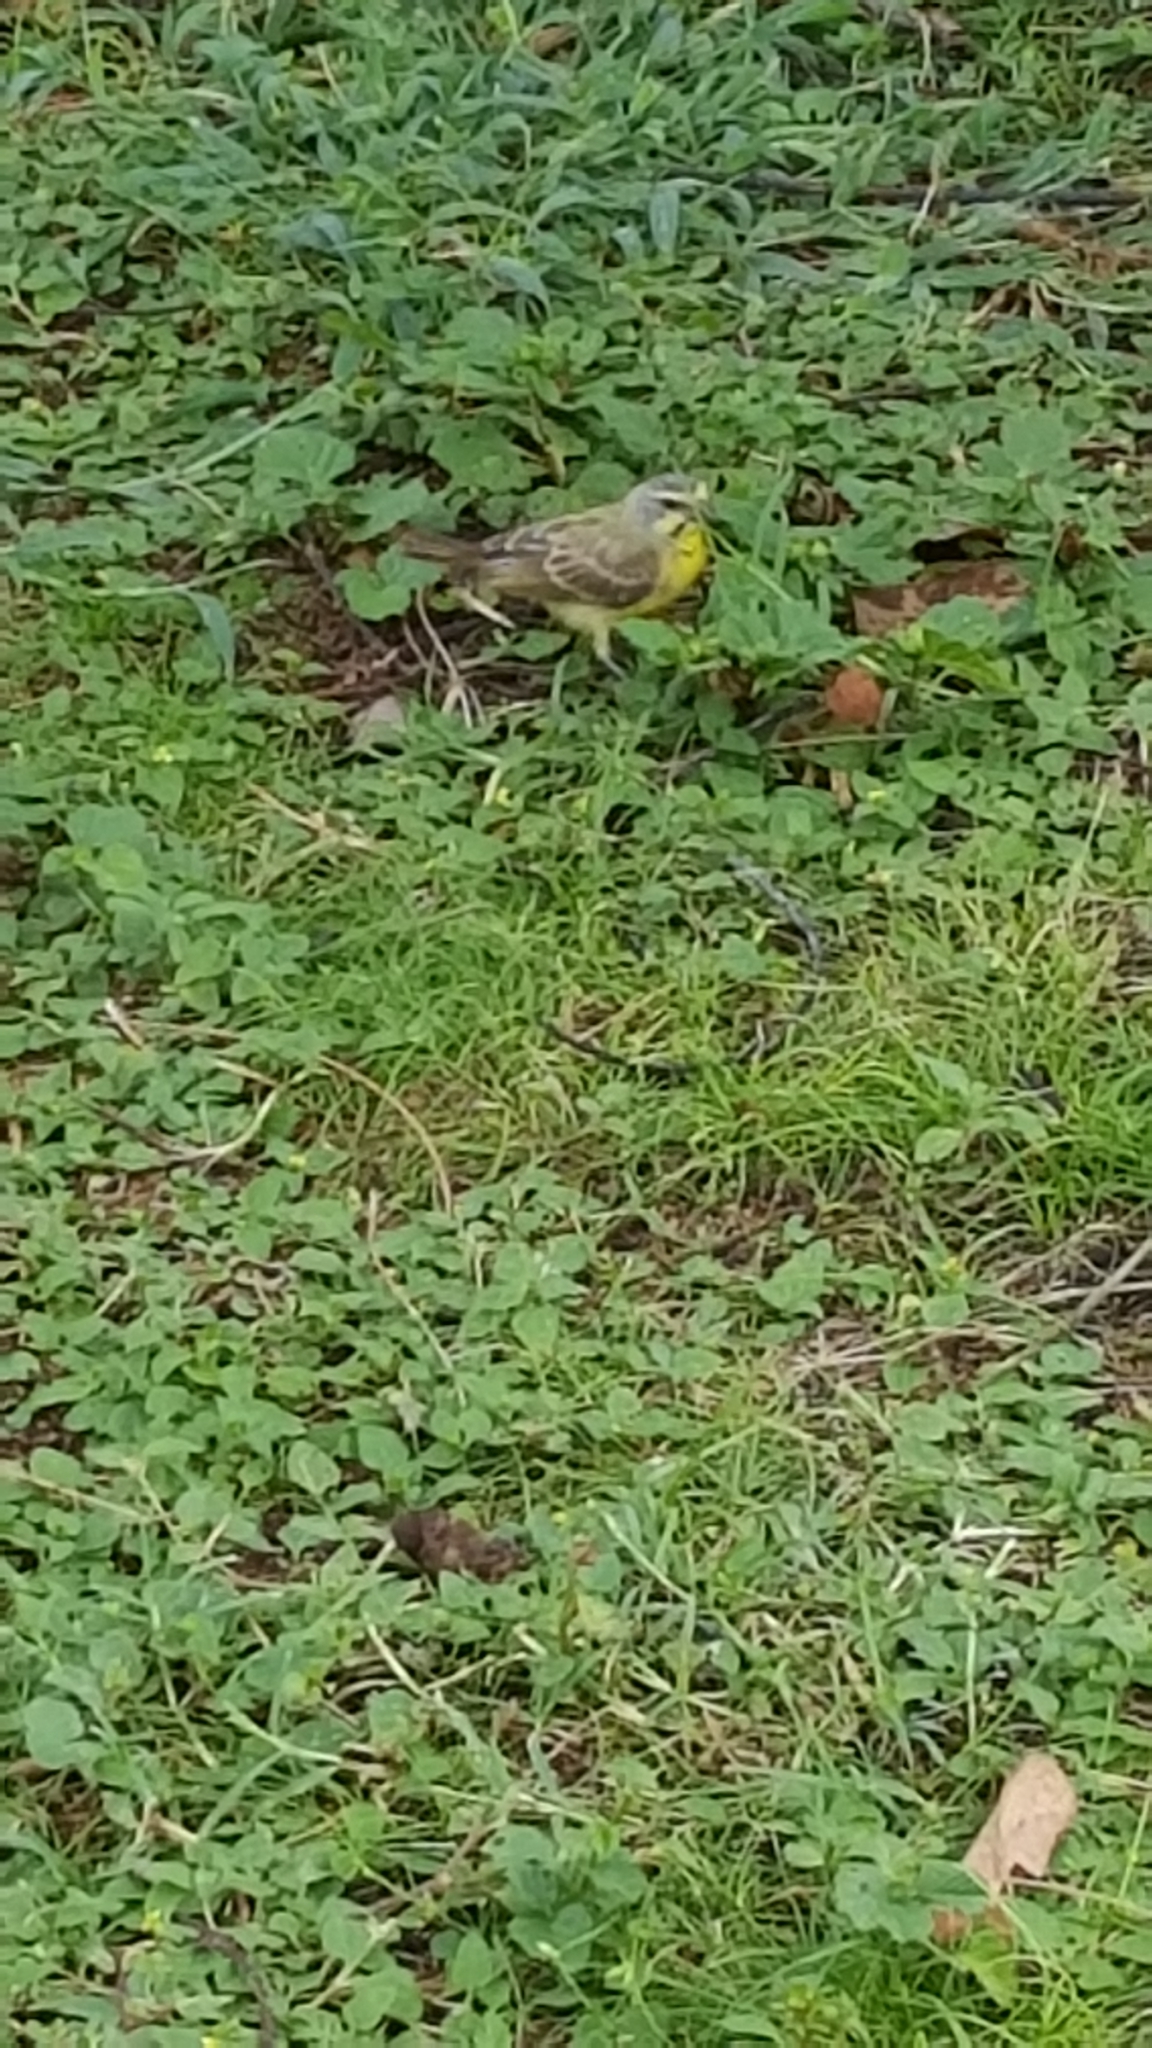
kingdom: Animalia
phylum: Chordata
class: Aves
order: Passeriformes
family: Fringillidae
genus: Crithagra
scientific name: Crithagra mozambica
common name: Yellow-fronted canary
